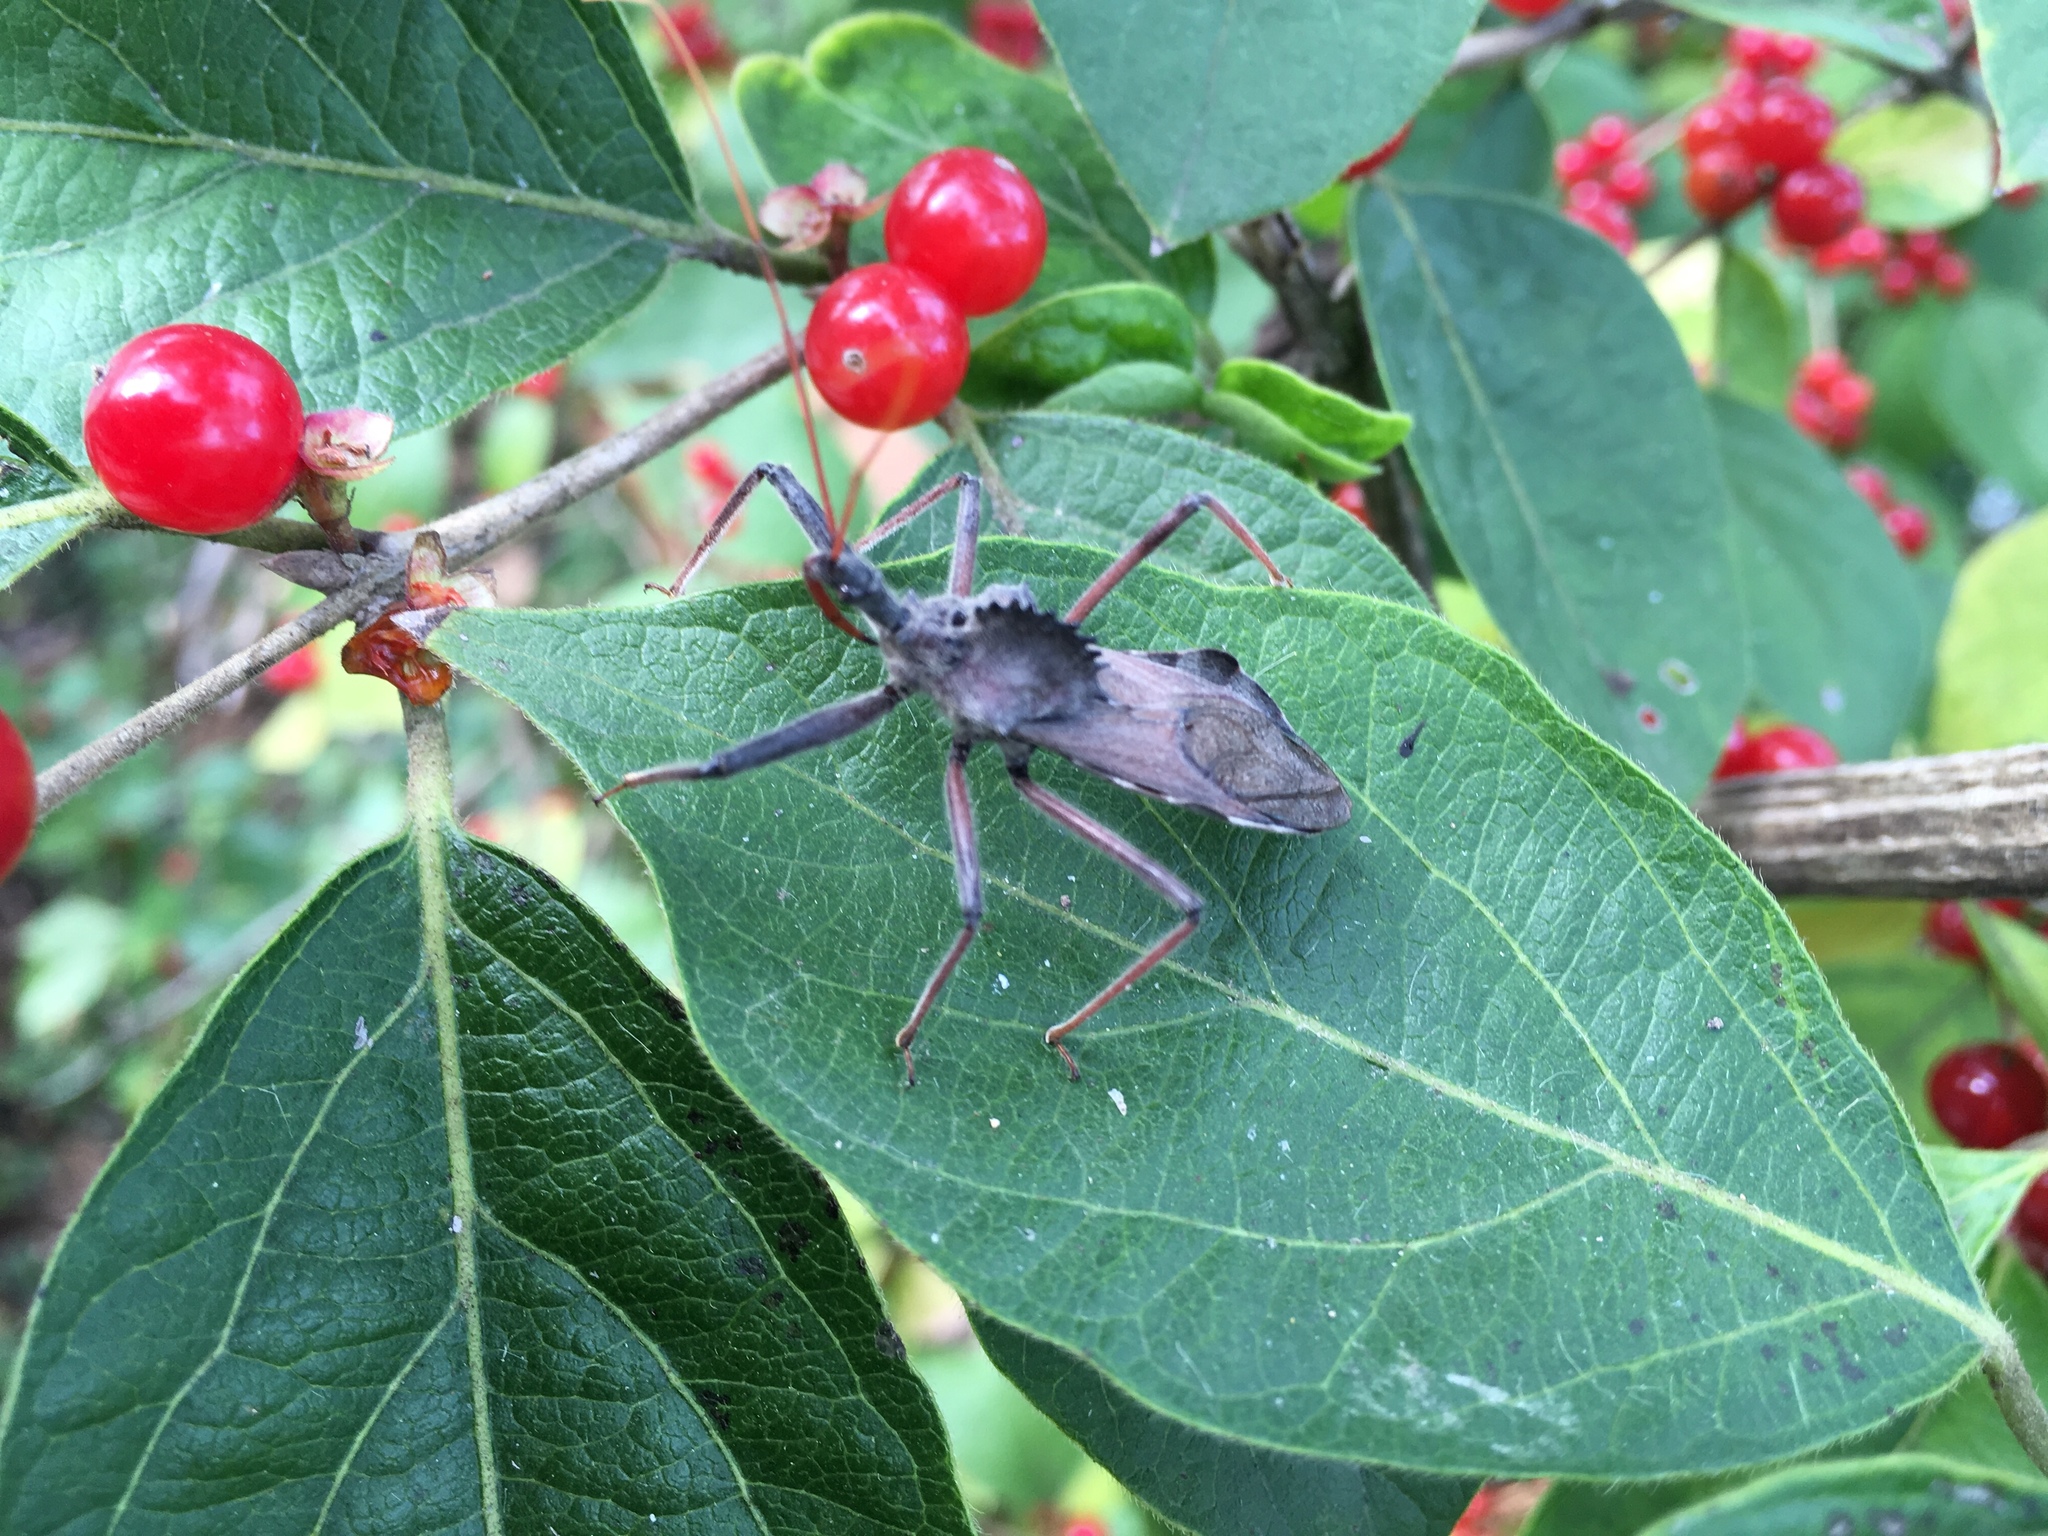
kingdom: Animalia
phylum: Arthropoda
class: Insecta
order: Hemiptera
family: Reduviidae
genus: Arilus
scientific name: Arilus cristatus
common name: North american wheel bug
